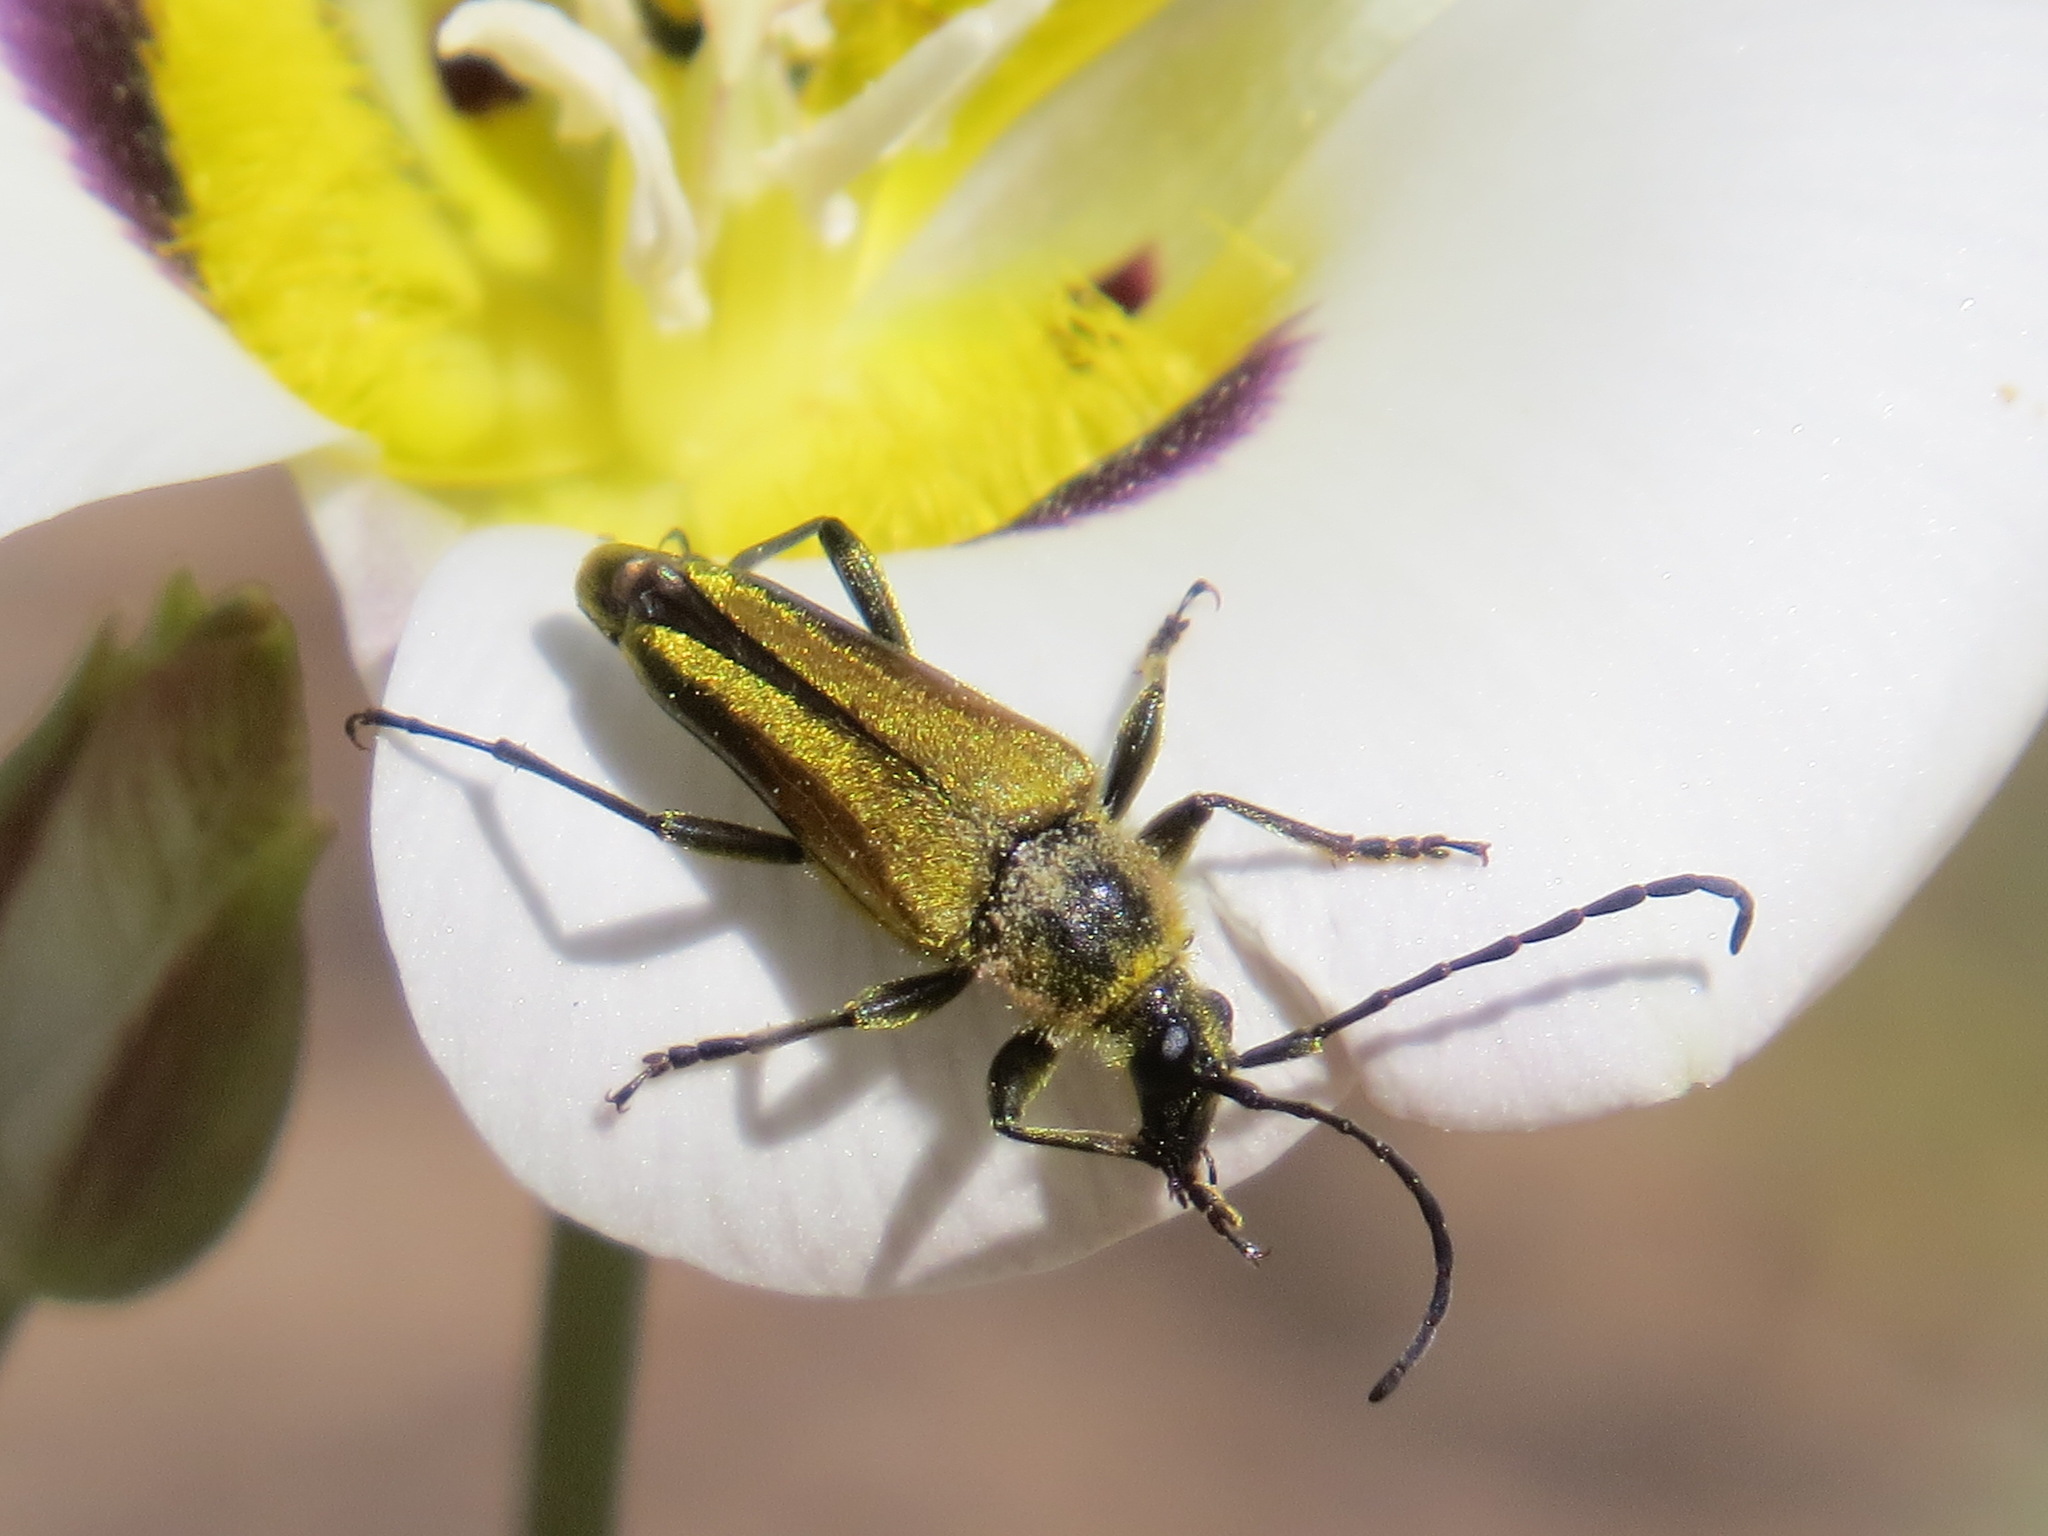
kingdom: Animalia
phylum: Arthropoda
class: Insecta
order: Coleoptera
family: Cerambycidae
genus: Cosmosalia
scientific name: Cosmosalia chrysocoma
